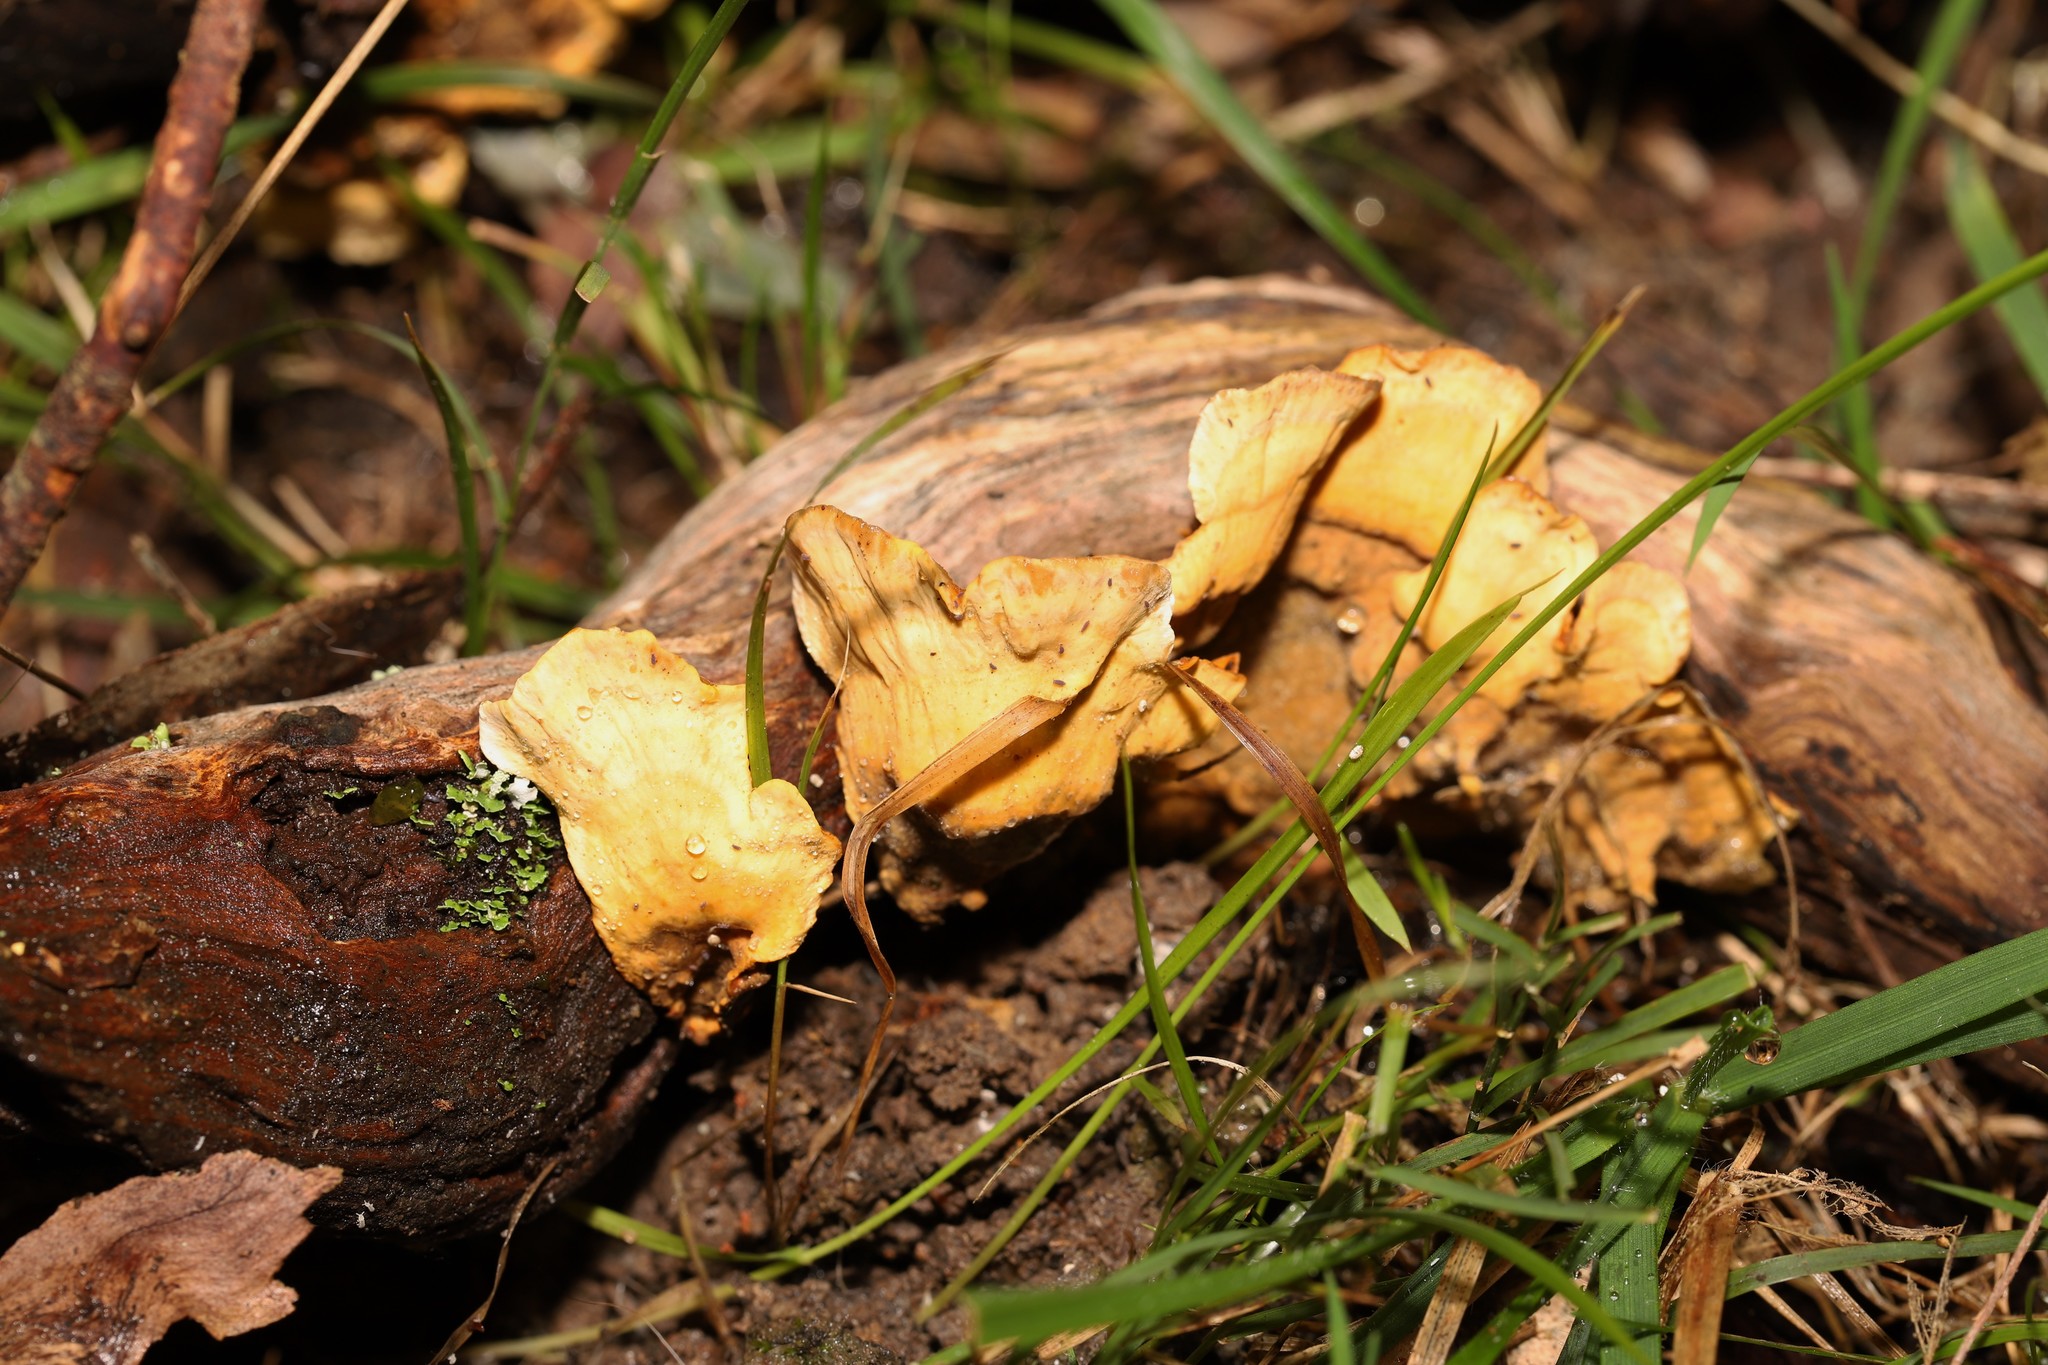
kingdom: Fungi
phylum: Basidiomycota
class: Agaricomycetes
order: Russulales
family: Stereaceae
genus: Stereum
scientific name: Stereum versicolor
